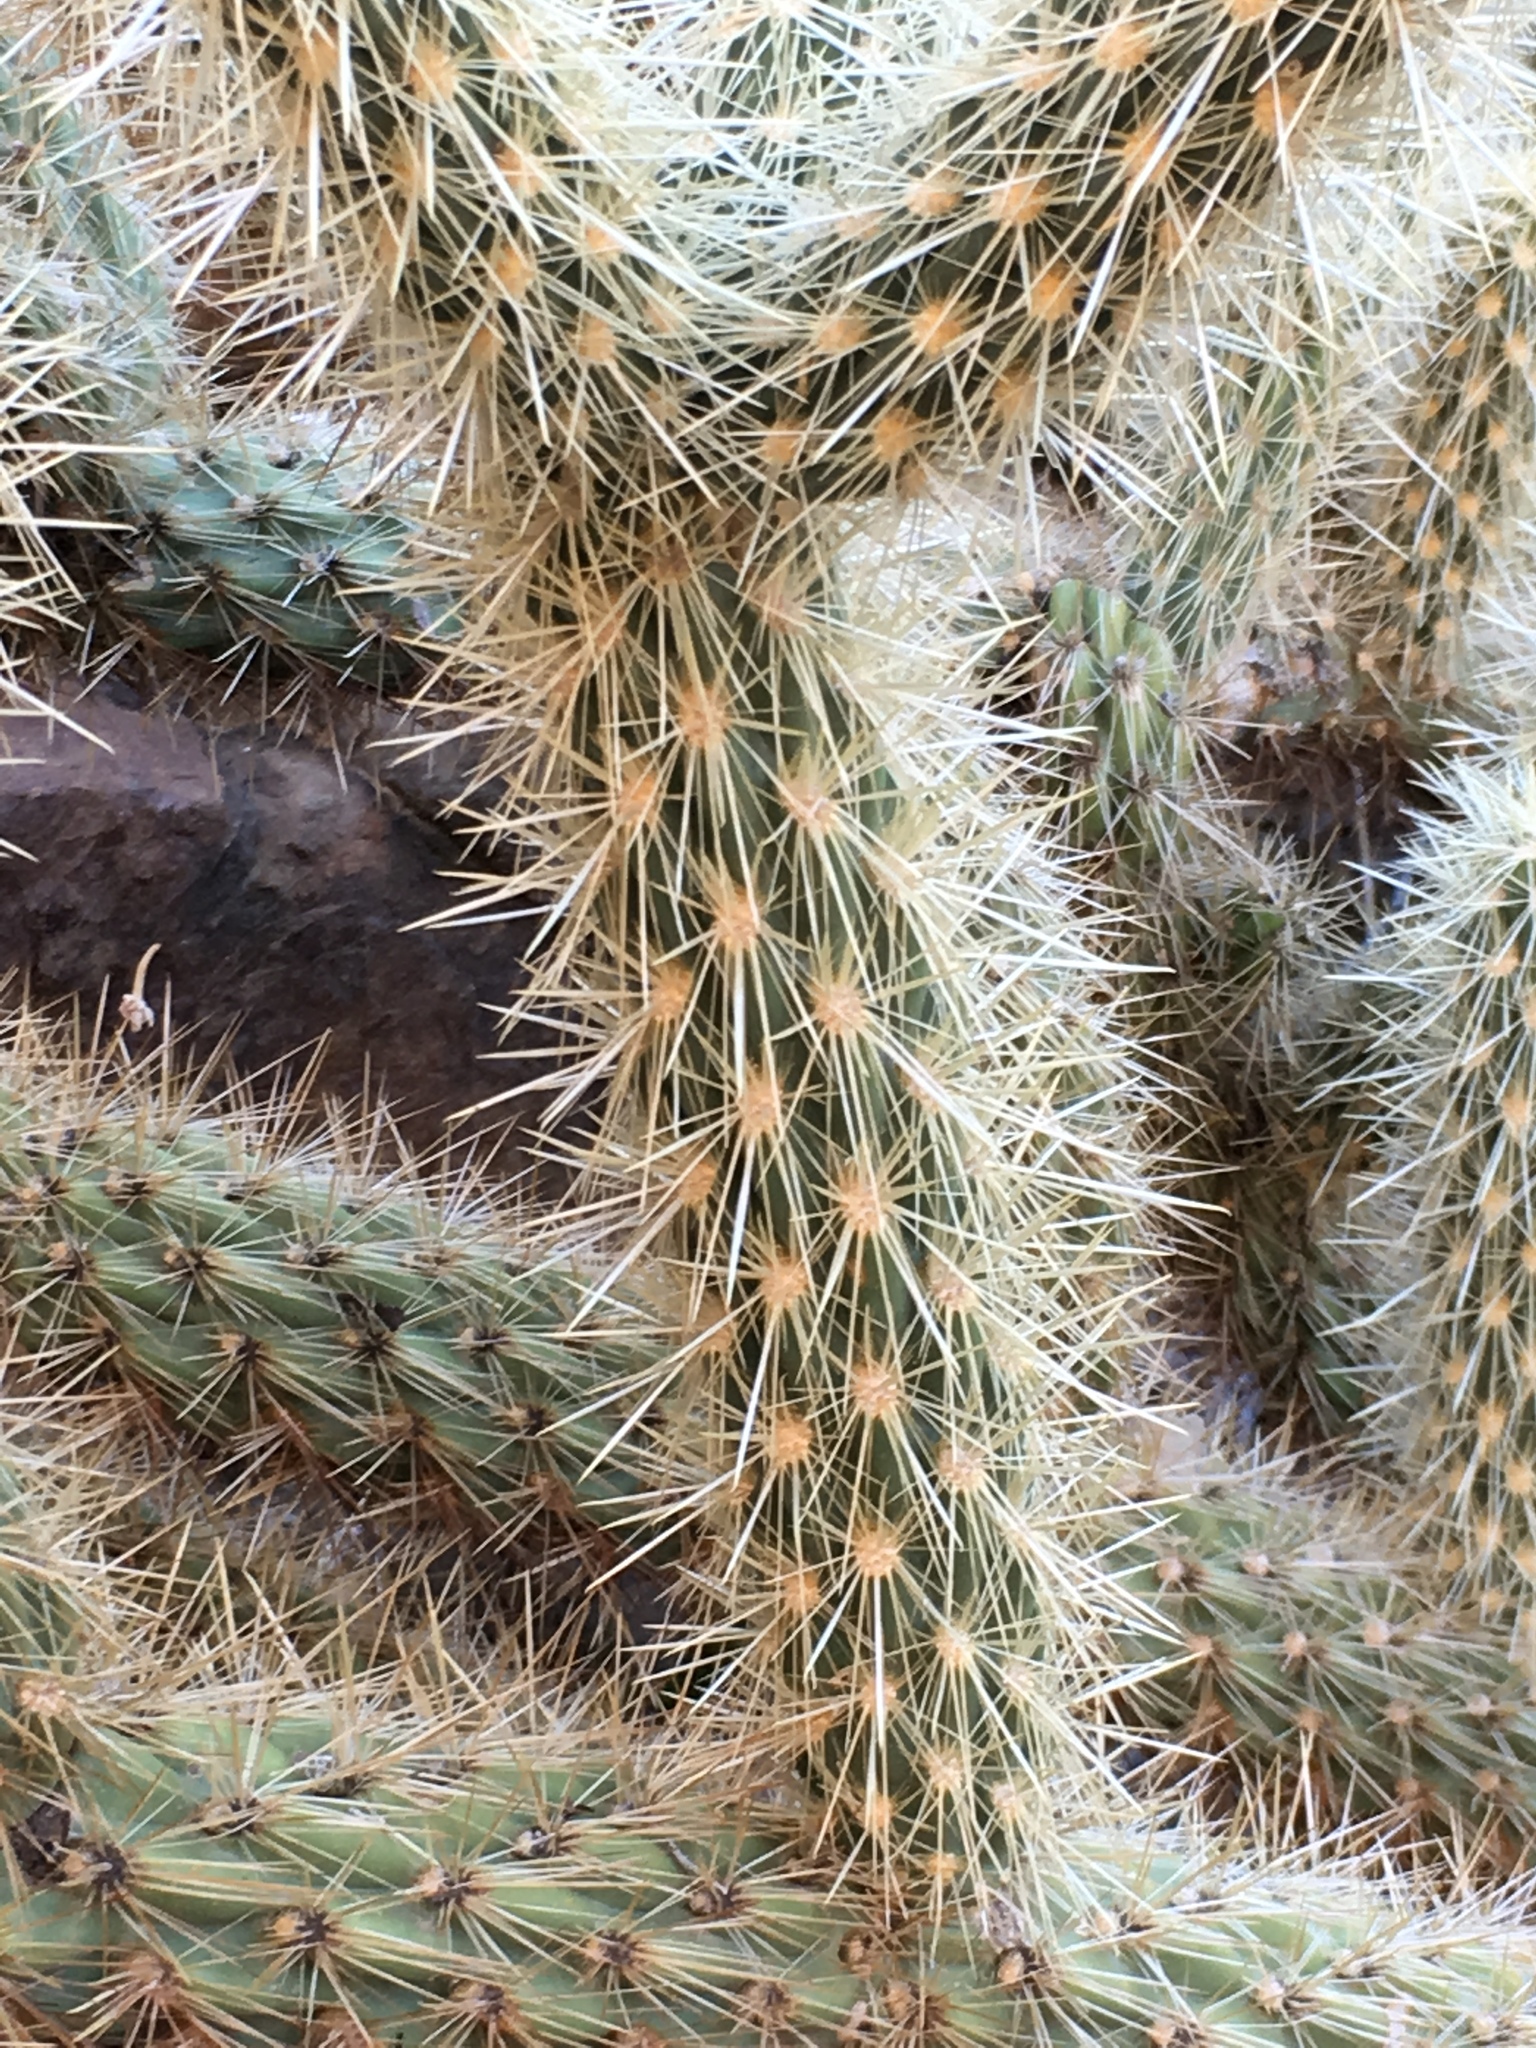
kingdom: Plantae
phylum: Tracheophyta
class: Magnoliopsida
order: Caryophyllales
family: Cactaceae
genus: Cylindropuntia
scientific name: Cylindropuntia ganderi
